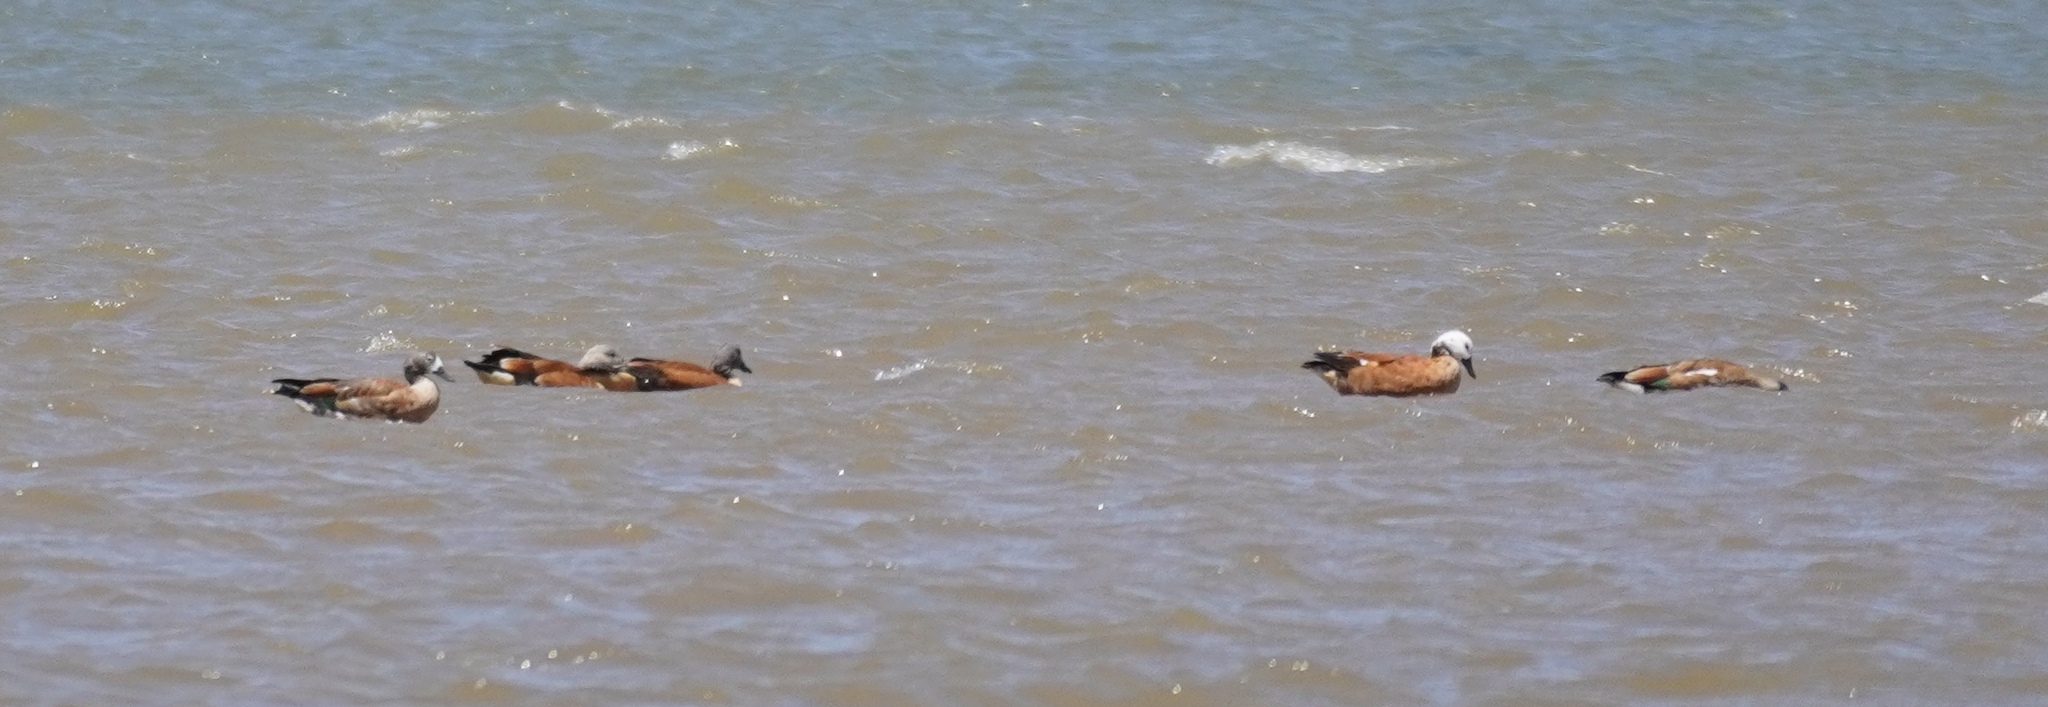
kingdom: Animalia
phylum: Chordata
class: Aves
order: Anseriformes
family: Anatidae
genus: Tadorna
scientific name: Tadorna cana
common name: South african shelduck
